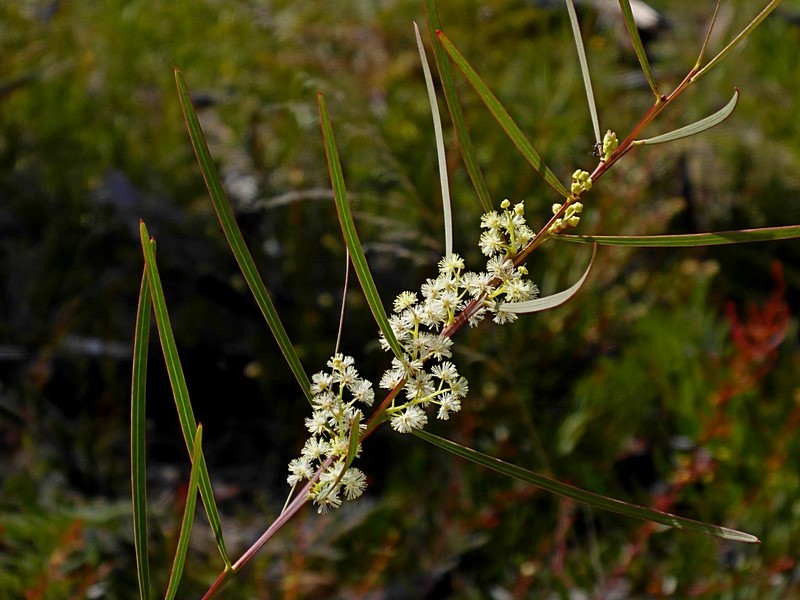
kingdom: Plantae
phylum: Tracheophyta
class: Magnoliopsida
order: Fabales
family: Fabaceae
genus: Acacia
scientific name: Acacia suaveolens
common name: Sweet acacia
